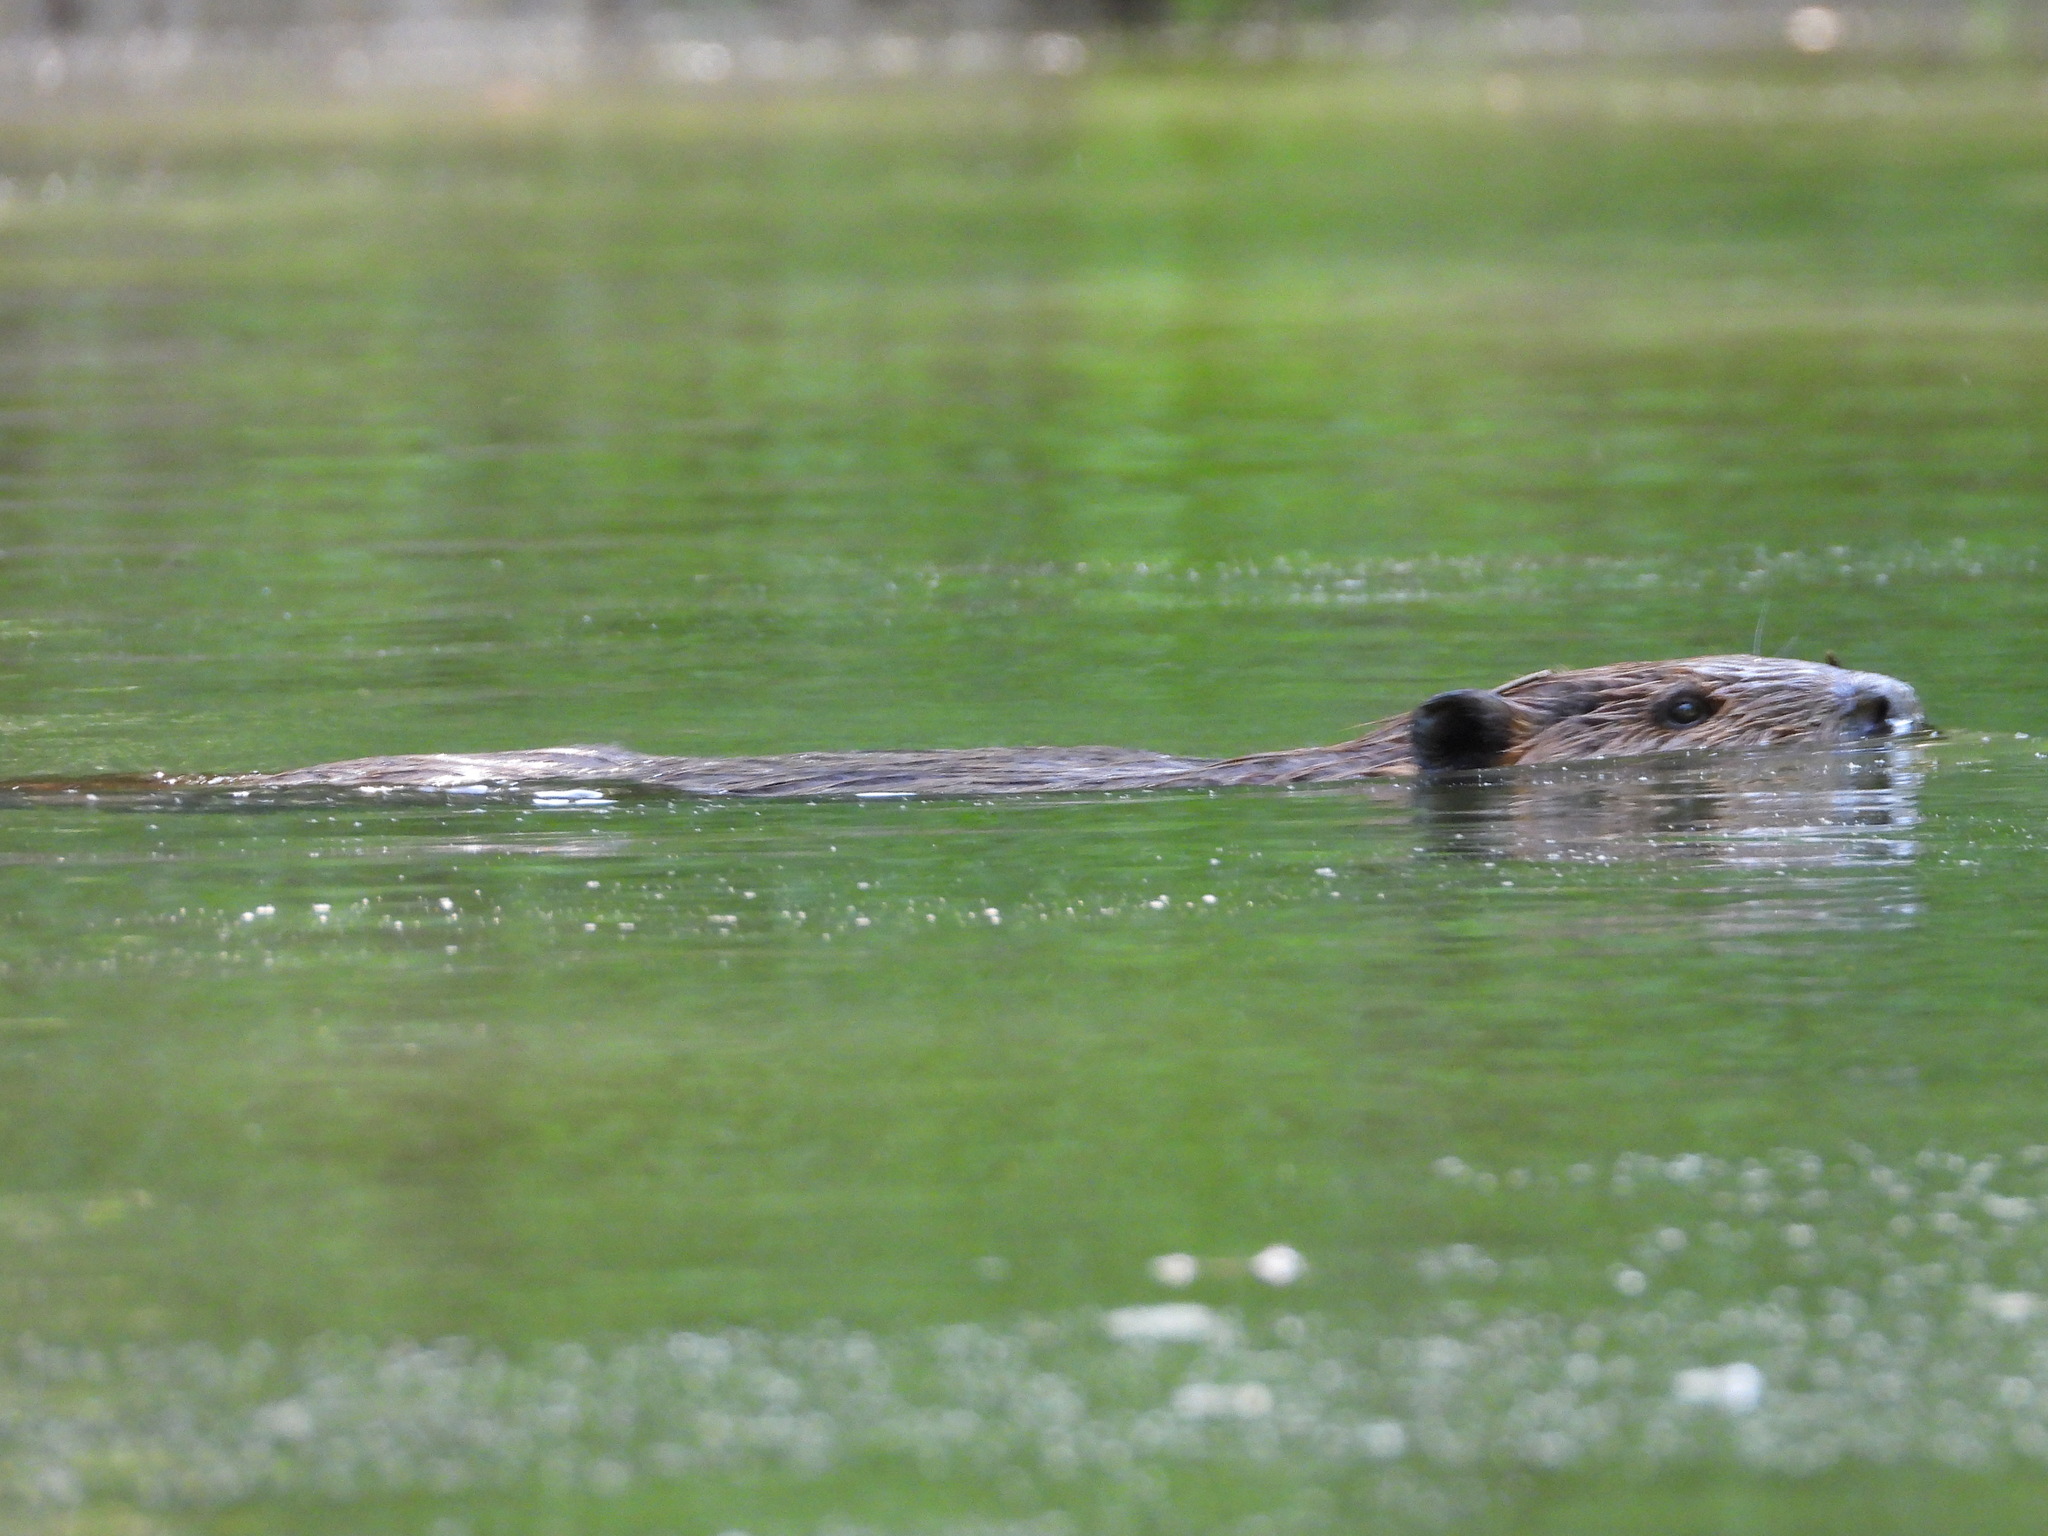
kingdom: Animalia
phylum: Chordata
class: Mammalia
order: Rodentia
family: Castoridae
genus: Castor
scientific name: Castor canadensis
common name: American beaver
